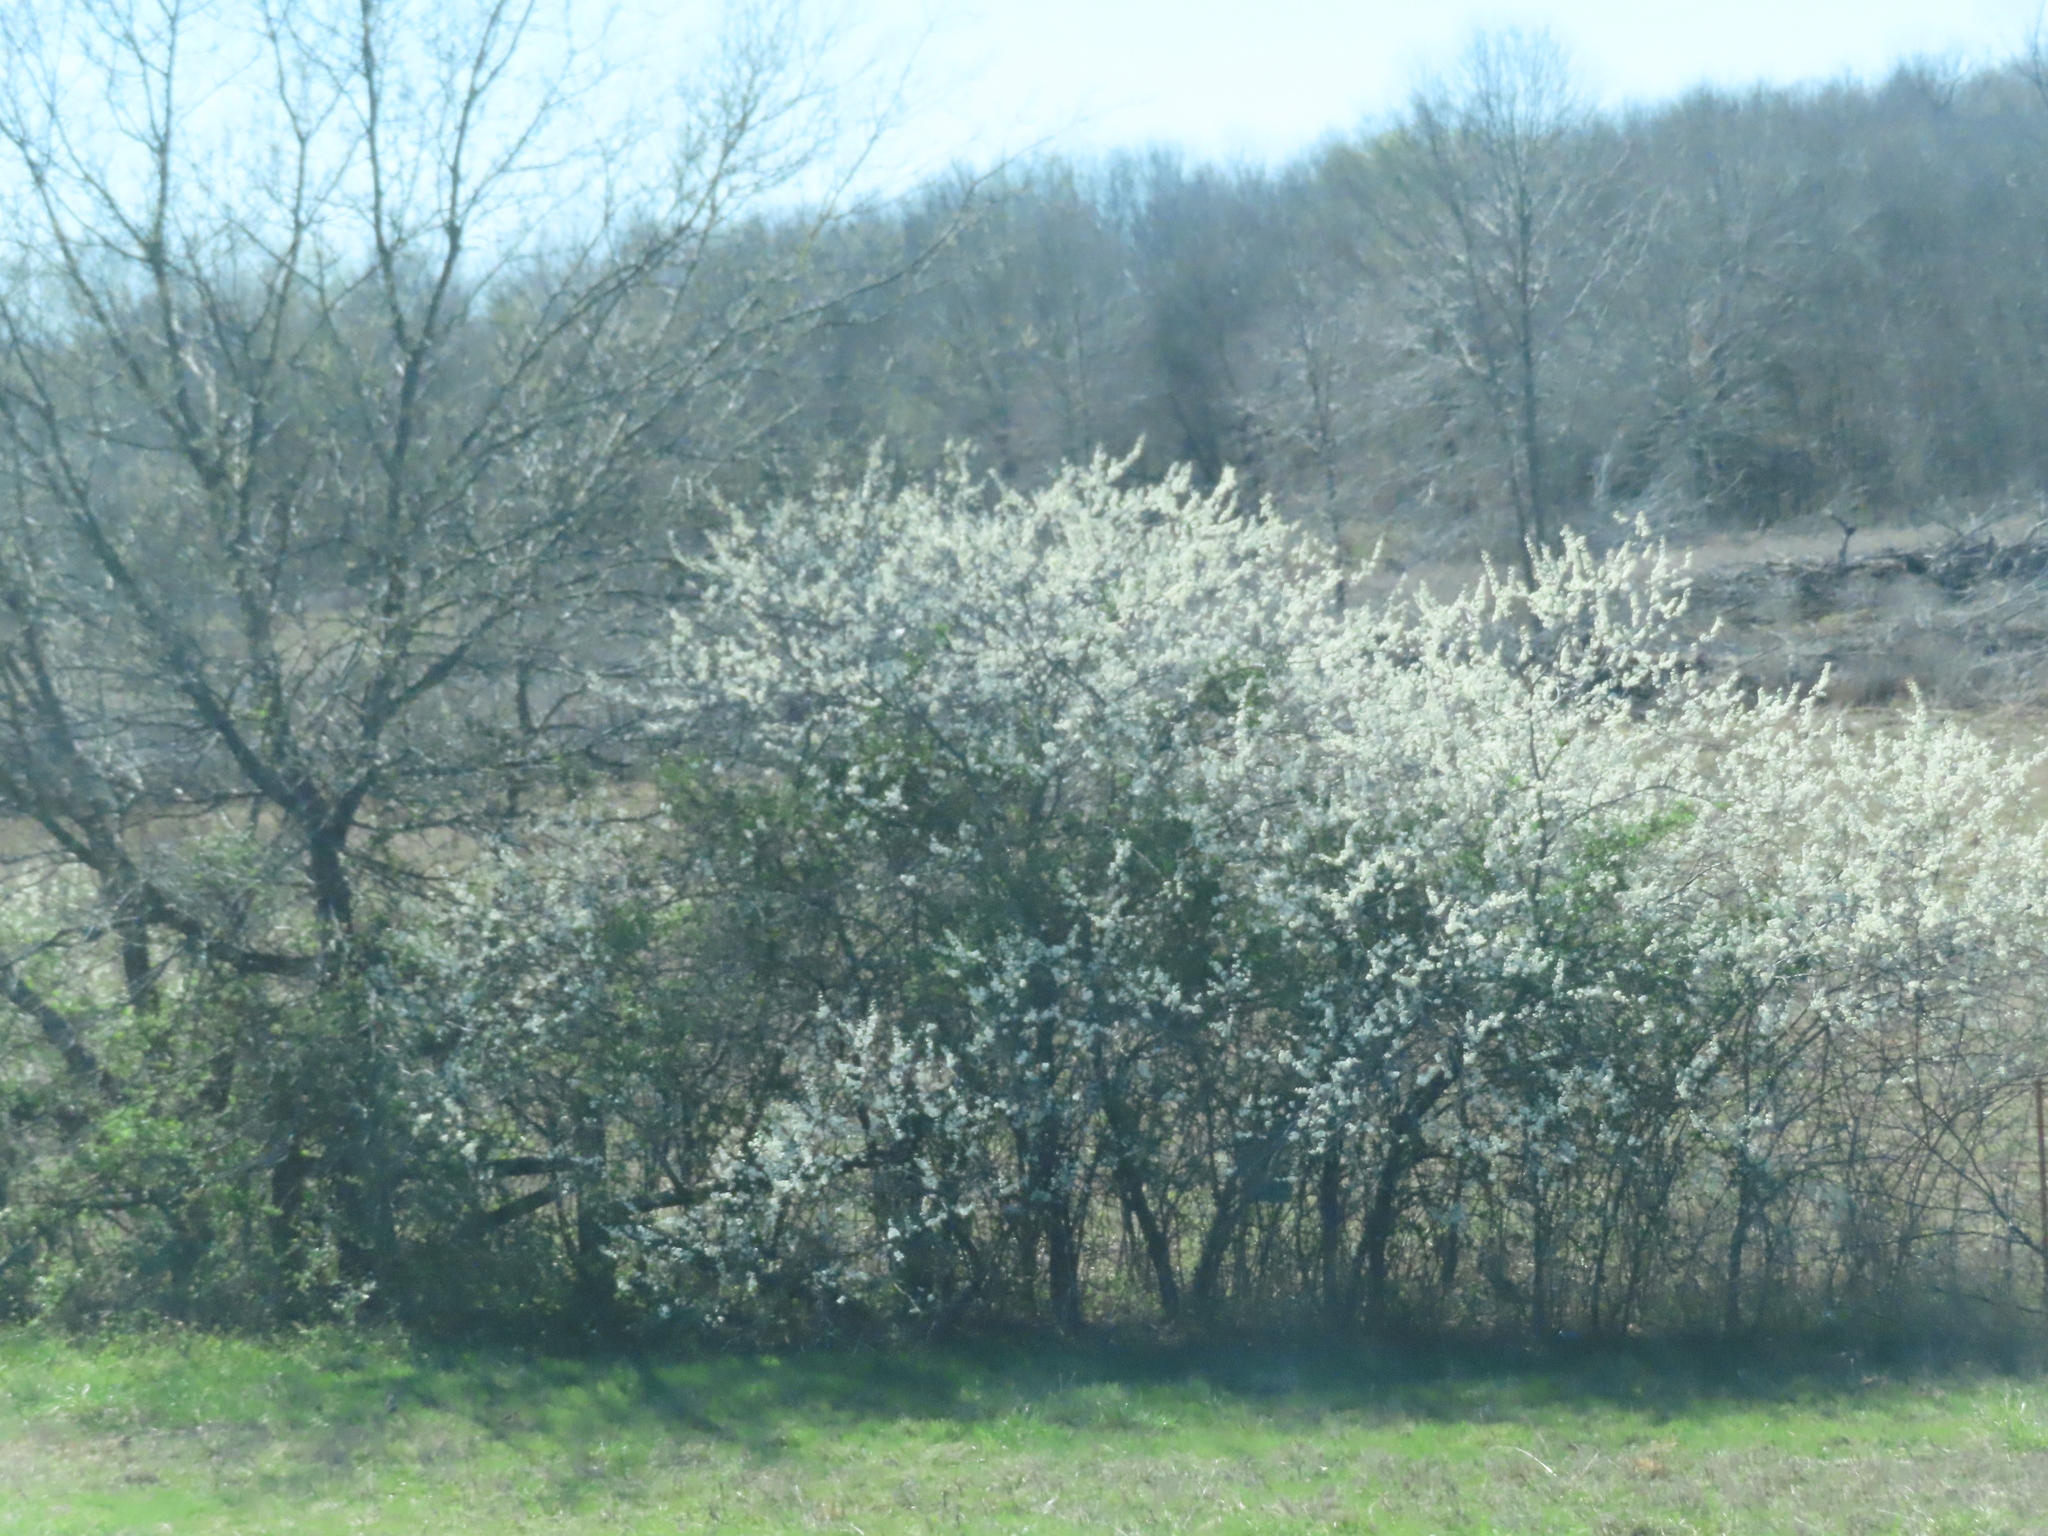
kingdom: Plantae
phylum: Tracheophyta
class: Magnoliopsida
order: Rosales
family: Rosaceae
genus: Pyrus
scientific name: Pyrus calleryana
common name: Callery pear
